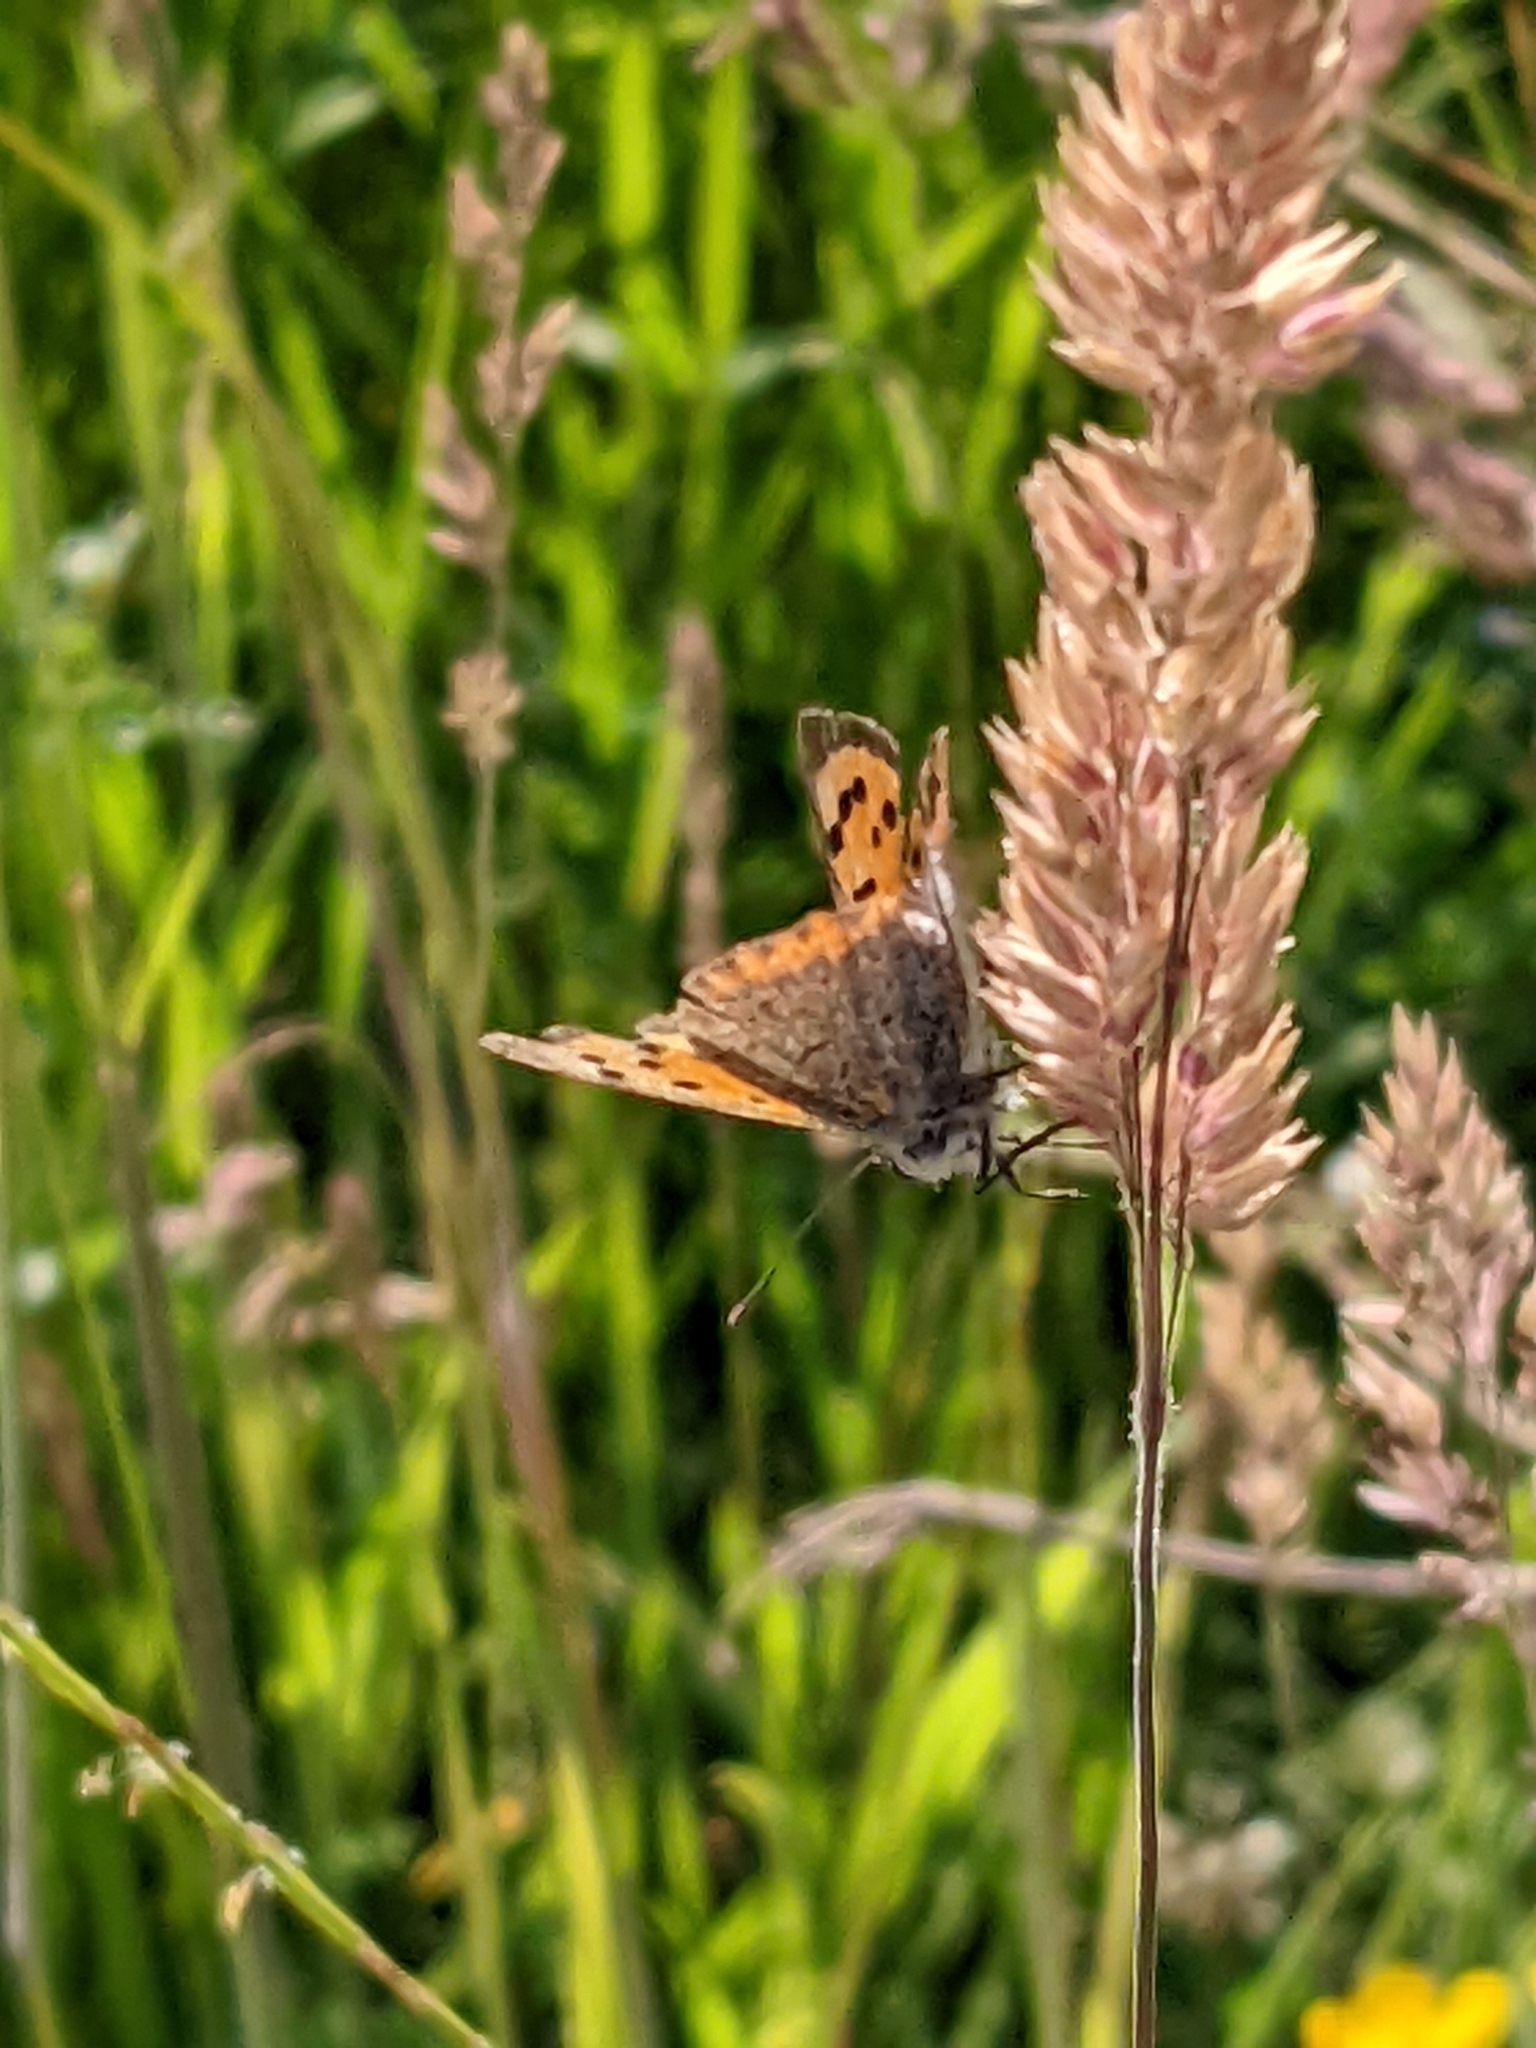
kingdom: Animalia
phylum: Arthropoda
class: Insecta
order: Lepidoptera
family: Lycaenidae
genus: Lycaena
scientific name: Lycaena phlaeas
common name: Small copper
